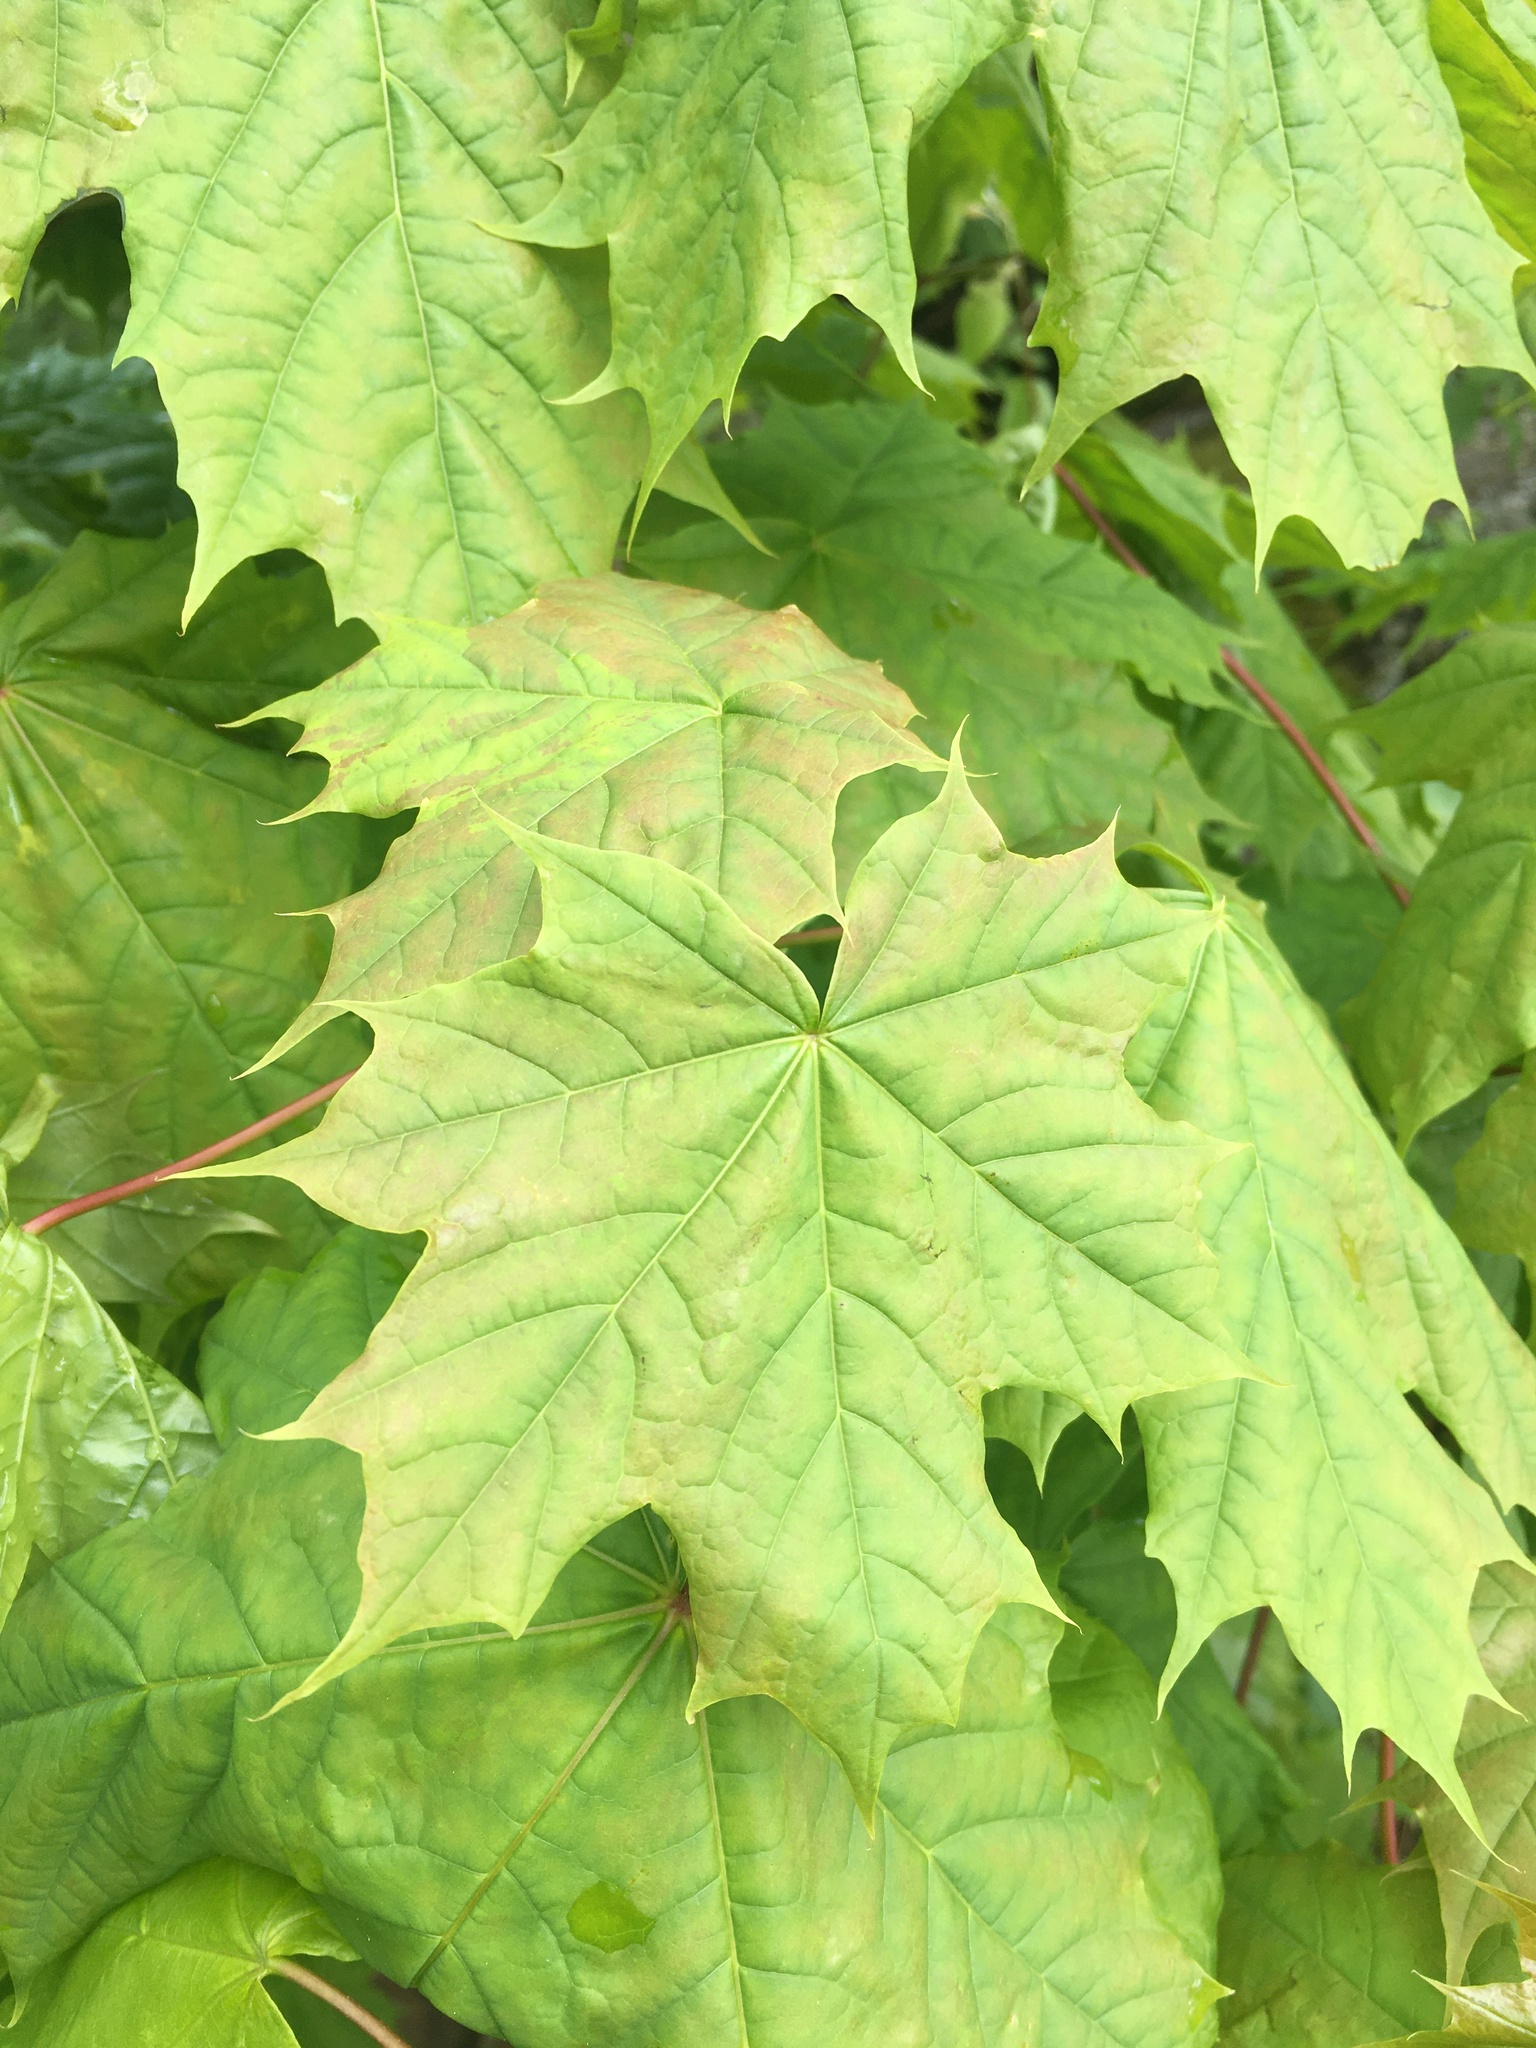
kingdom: Plantae
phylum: Tracheophyta
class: Magnoliopsida
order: Sapindales
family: Sapindaceae
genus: Acer
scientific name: Acer platanoides
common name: Norway maple
